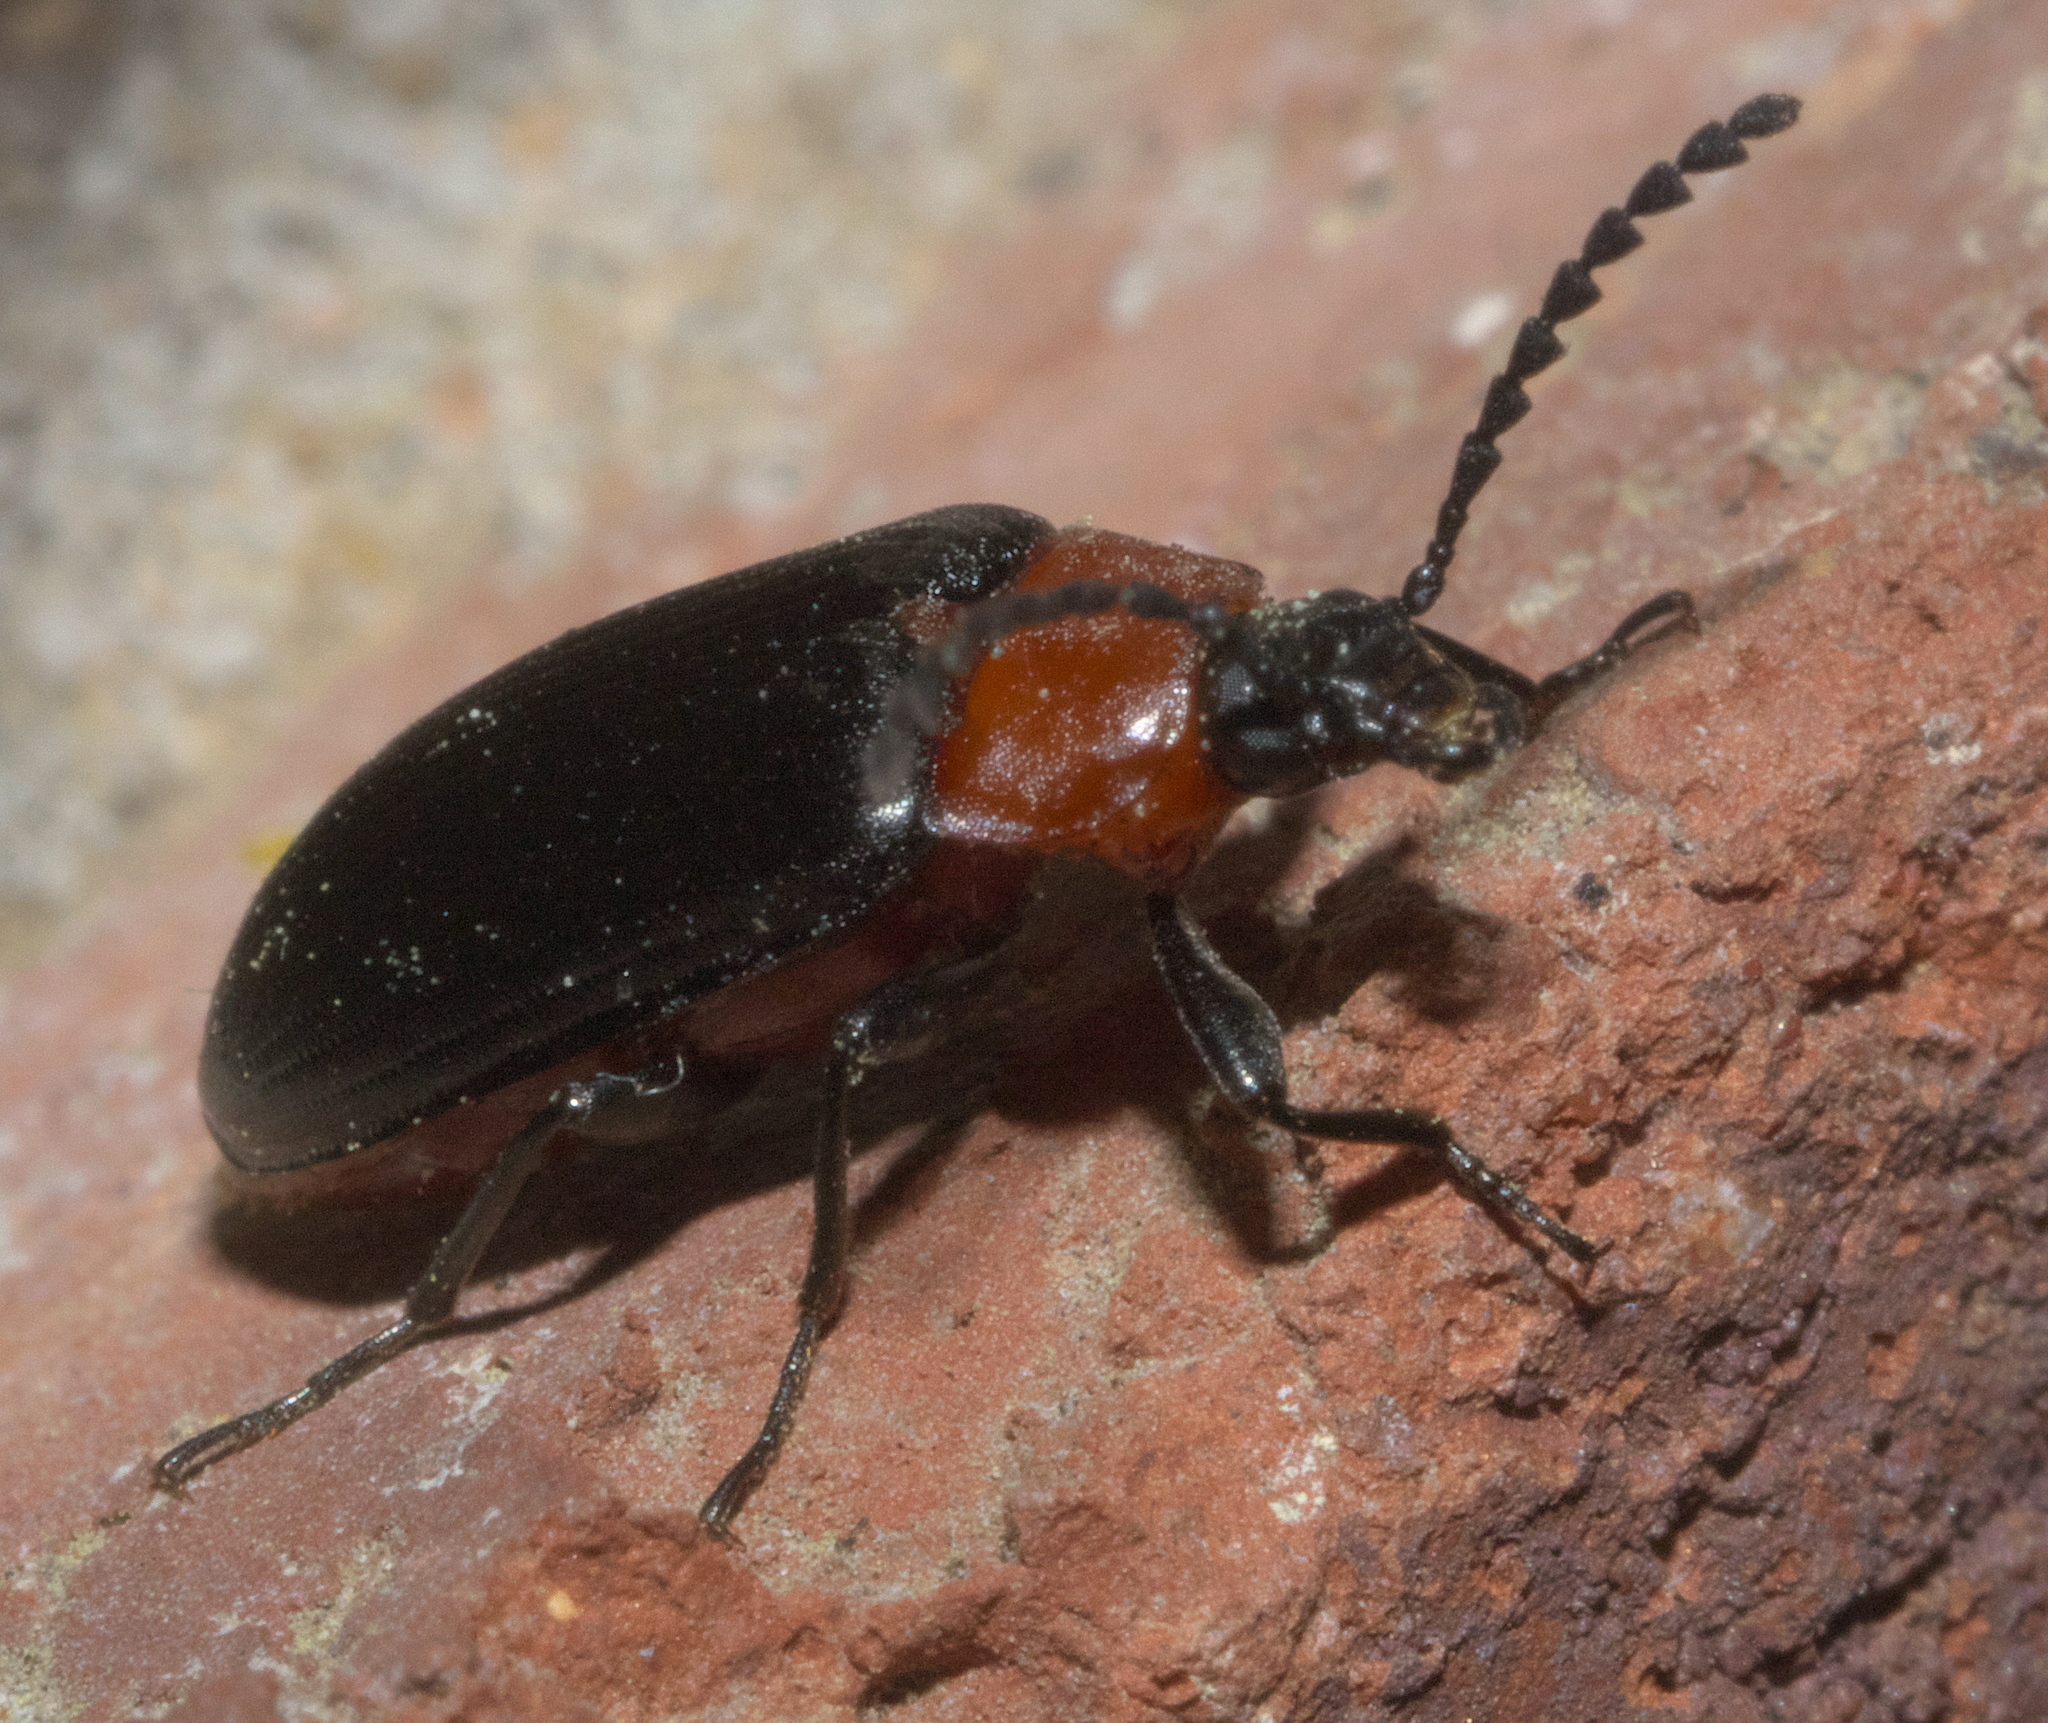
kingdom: Animalia
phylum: Arthropoda
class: Insecta
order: Coleoptera
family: Tenebrionidae
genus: Chromatia
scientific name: Chromatia amoena
